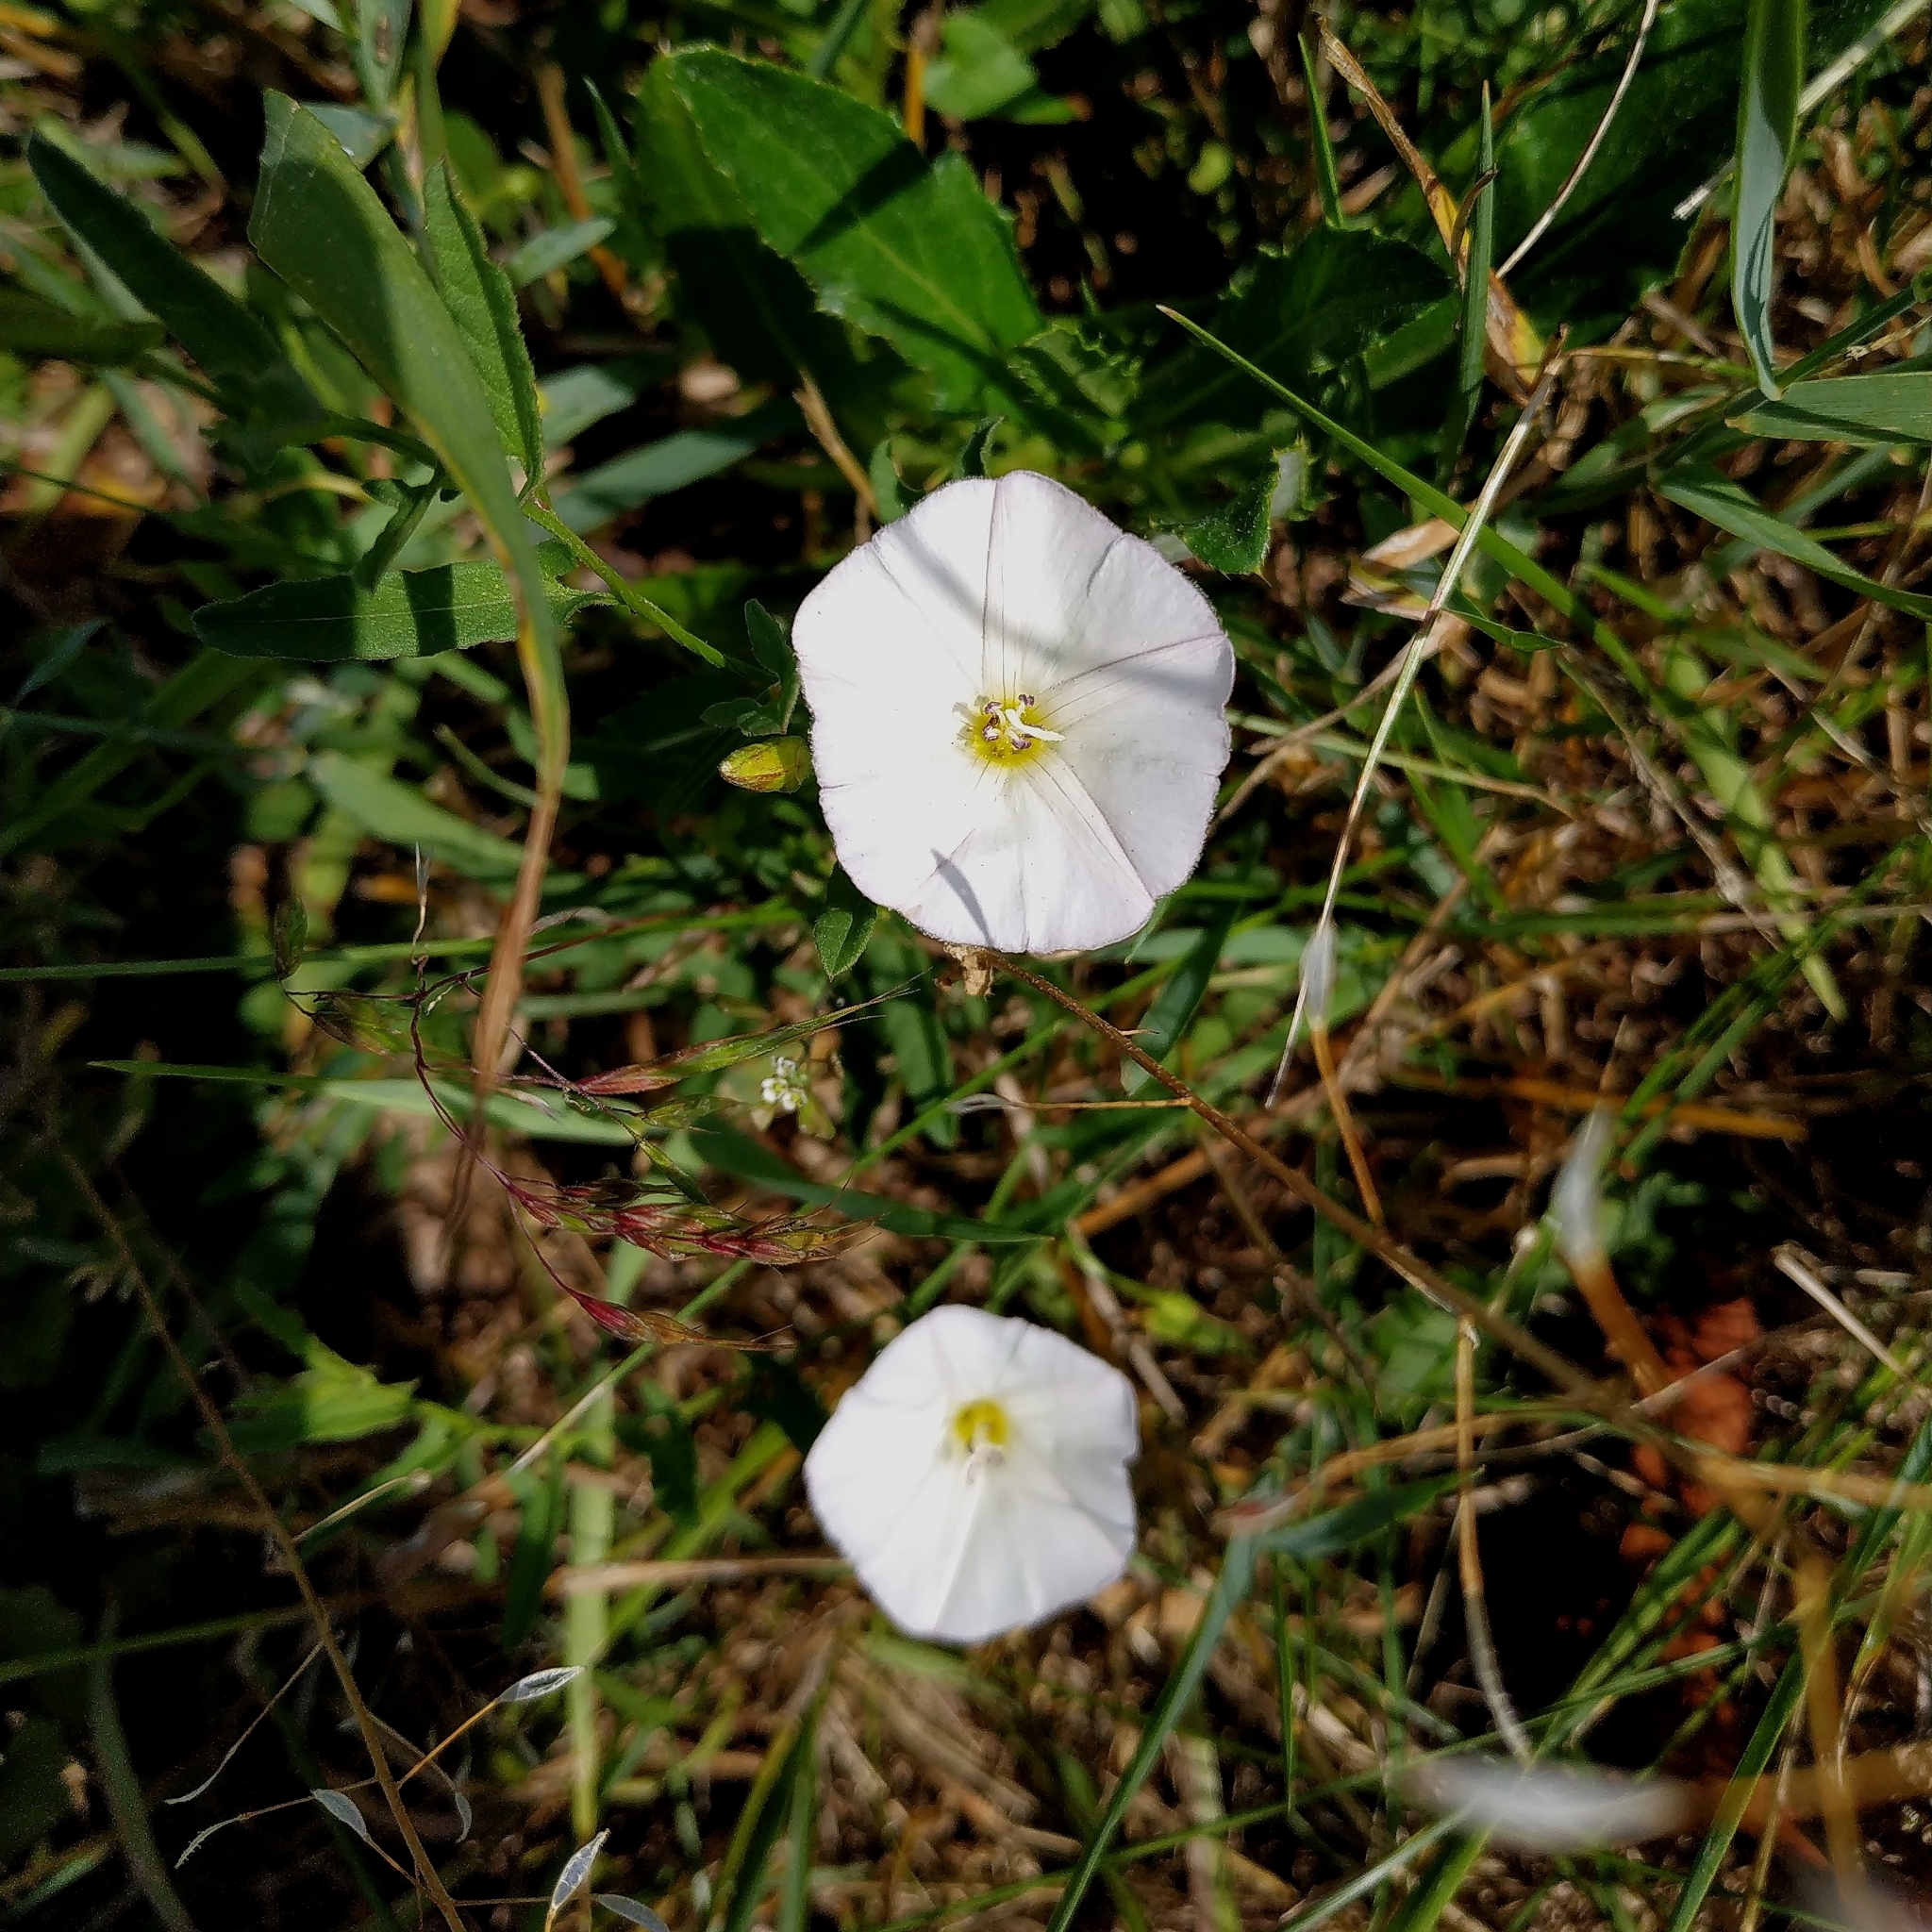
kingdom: Plantae
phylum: Tracheophyta
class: Magnoliopsida
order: Solanales
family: Convolvulaceae
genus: Convolvulus
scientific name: Convolvulus arvensis
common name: Field bindweed
